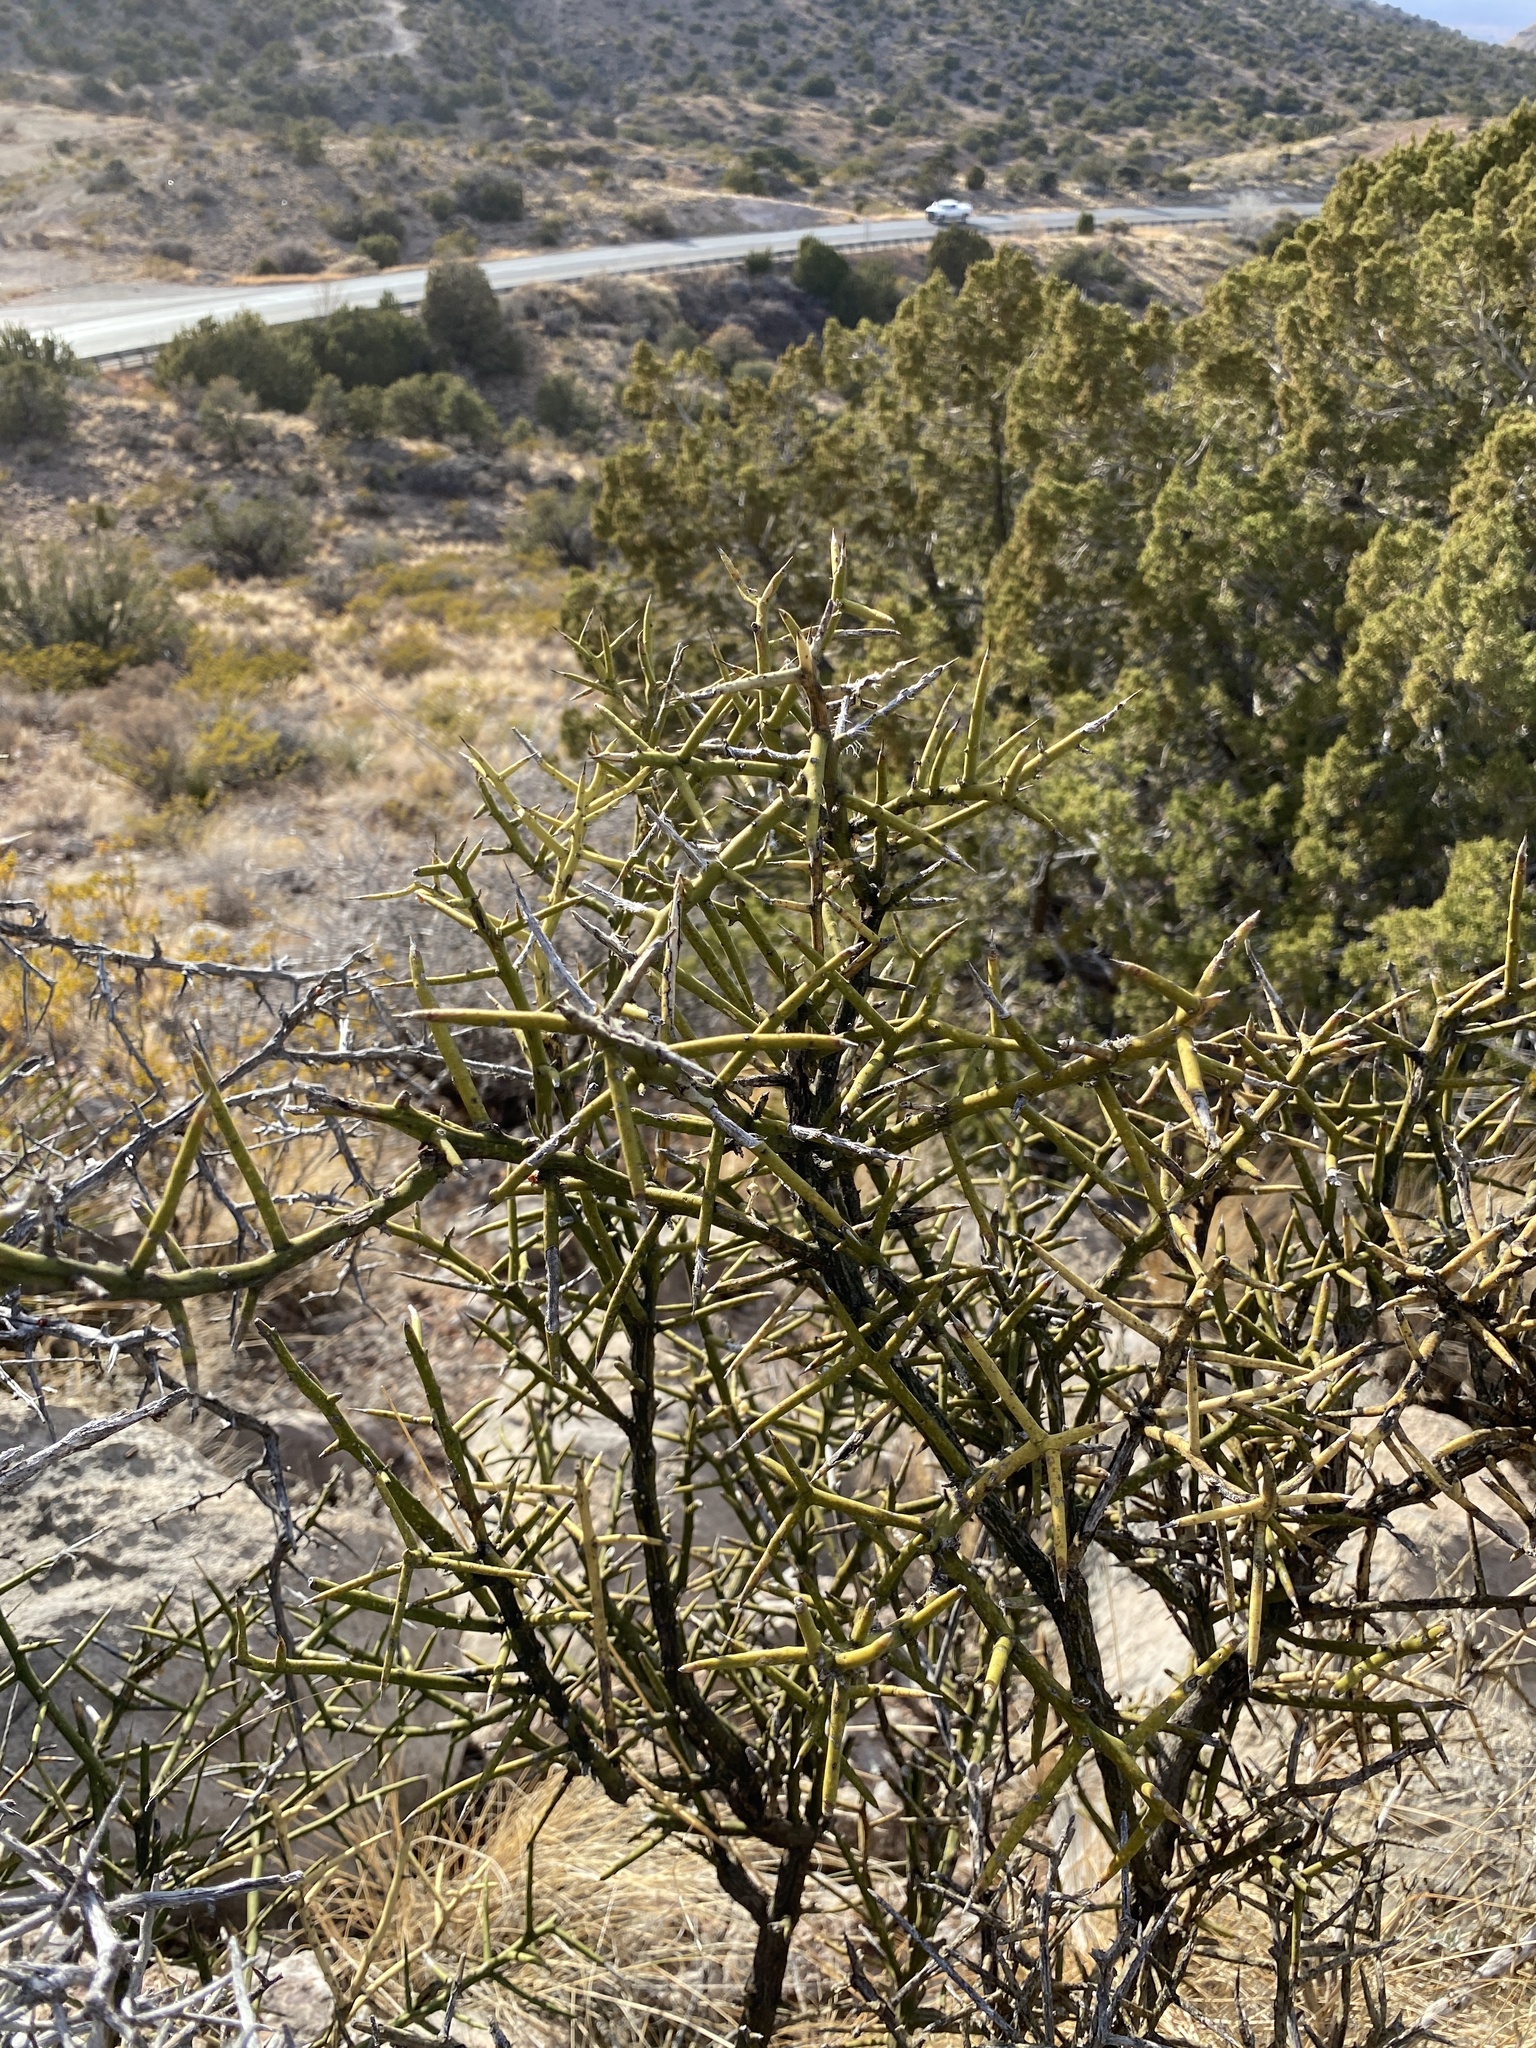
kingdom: Plantae
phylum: Tracheophyta
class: Magnoliopsida
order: Brassicales
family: Koeberliniaceae
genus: Koeberlinia
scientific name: Koeberlinia spinosa
